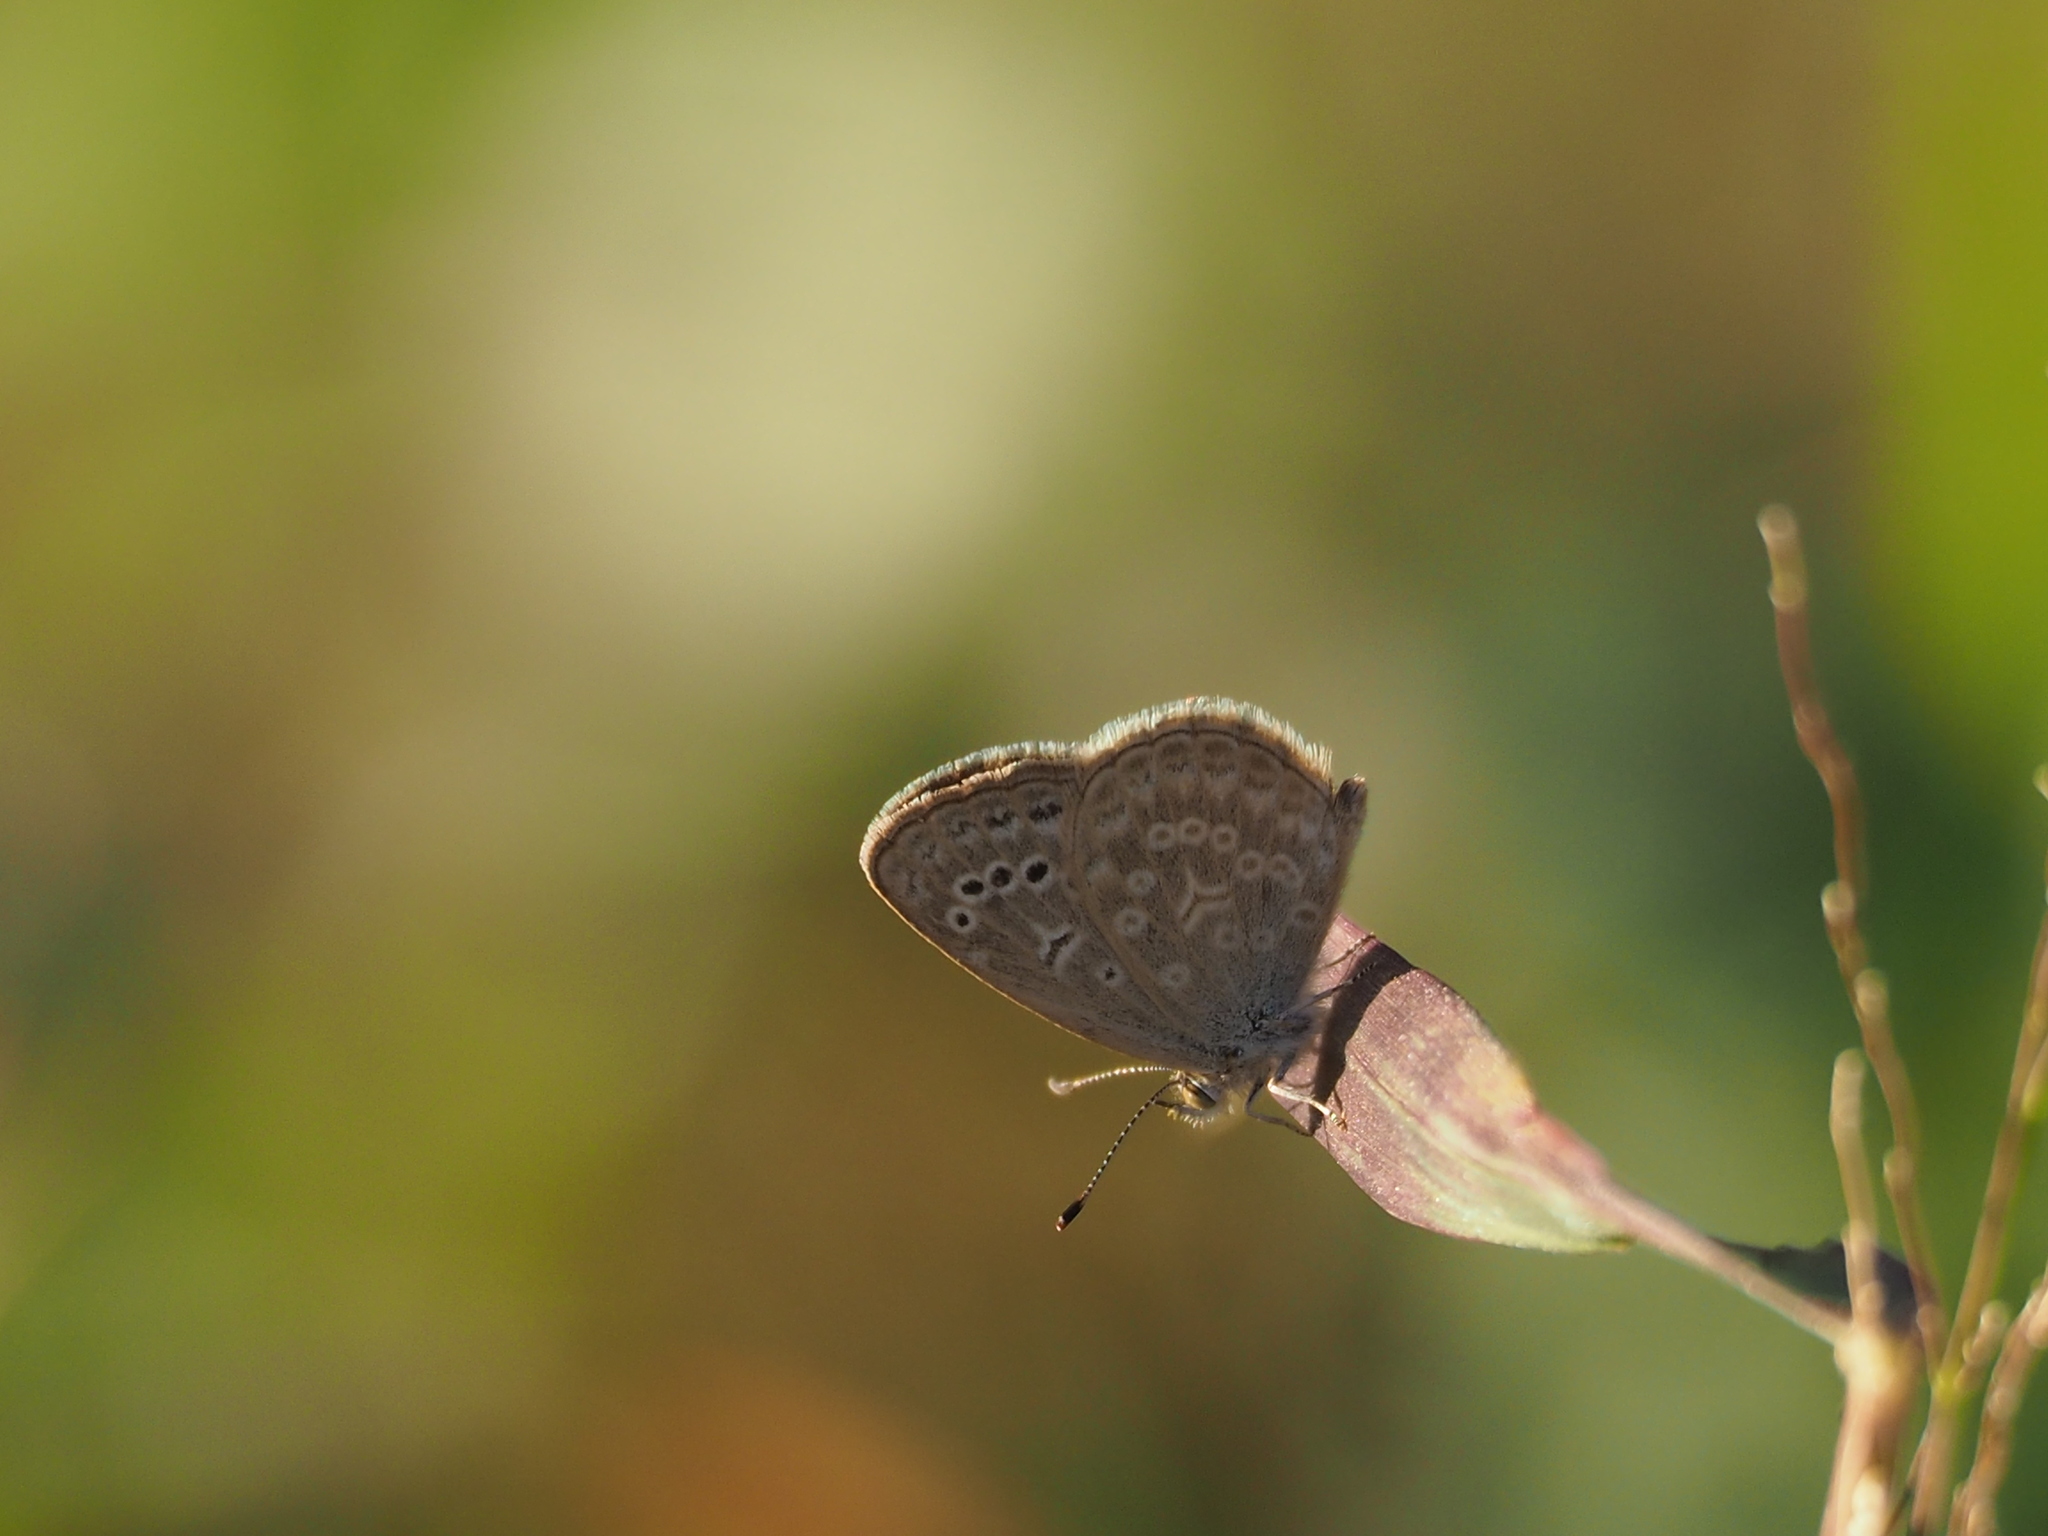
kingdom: Animalia
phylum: Arthropoda
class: Insecta
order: Lepidoptera
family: Lycaenidae
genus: Pseudozizeeria
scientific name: Pseudozizeeria maha
